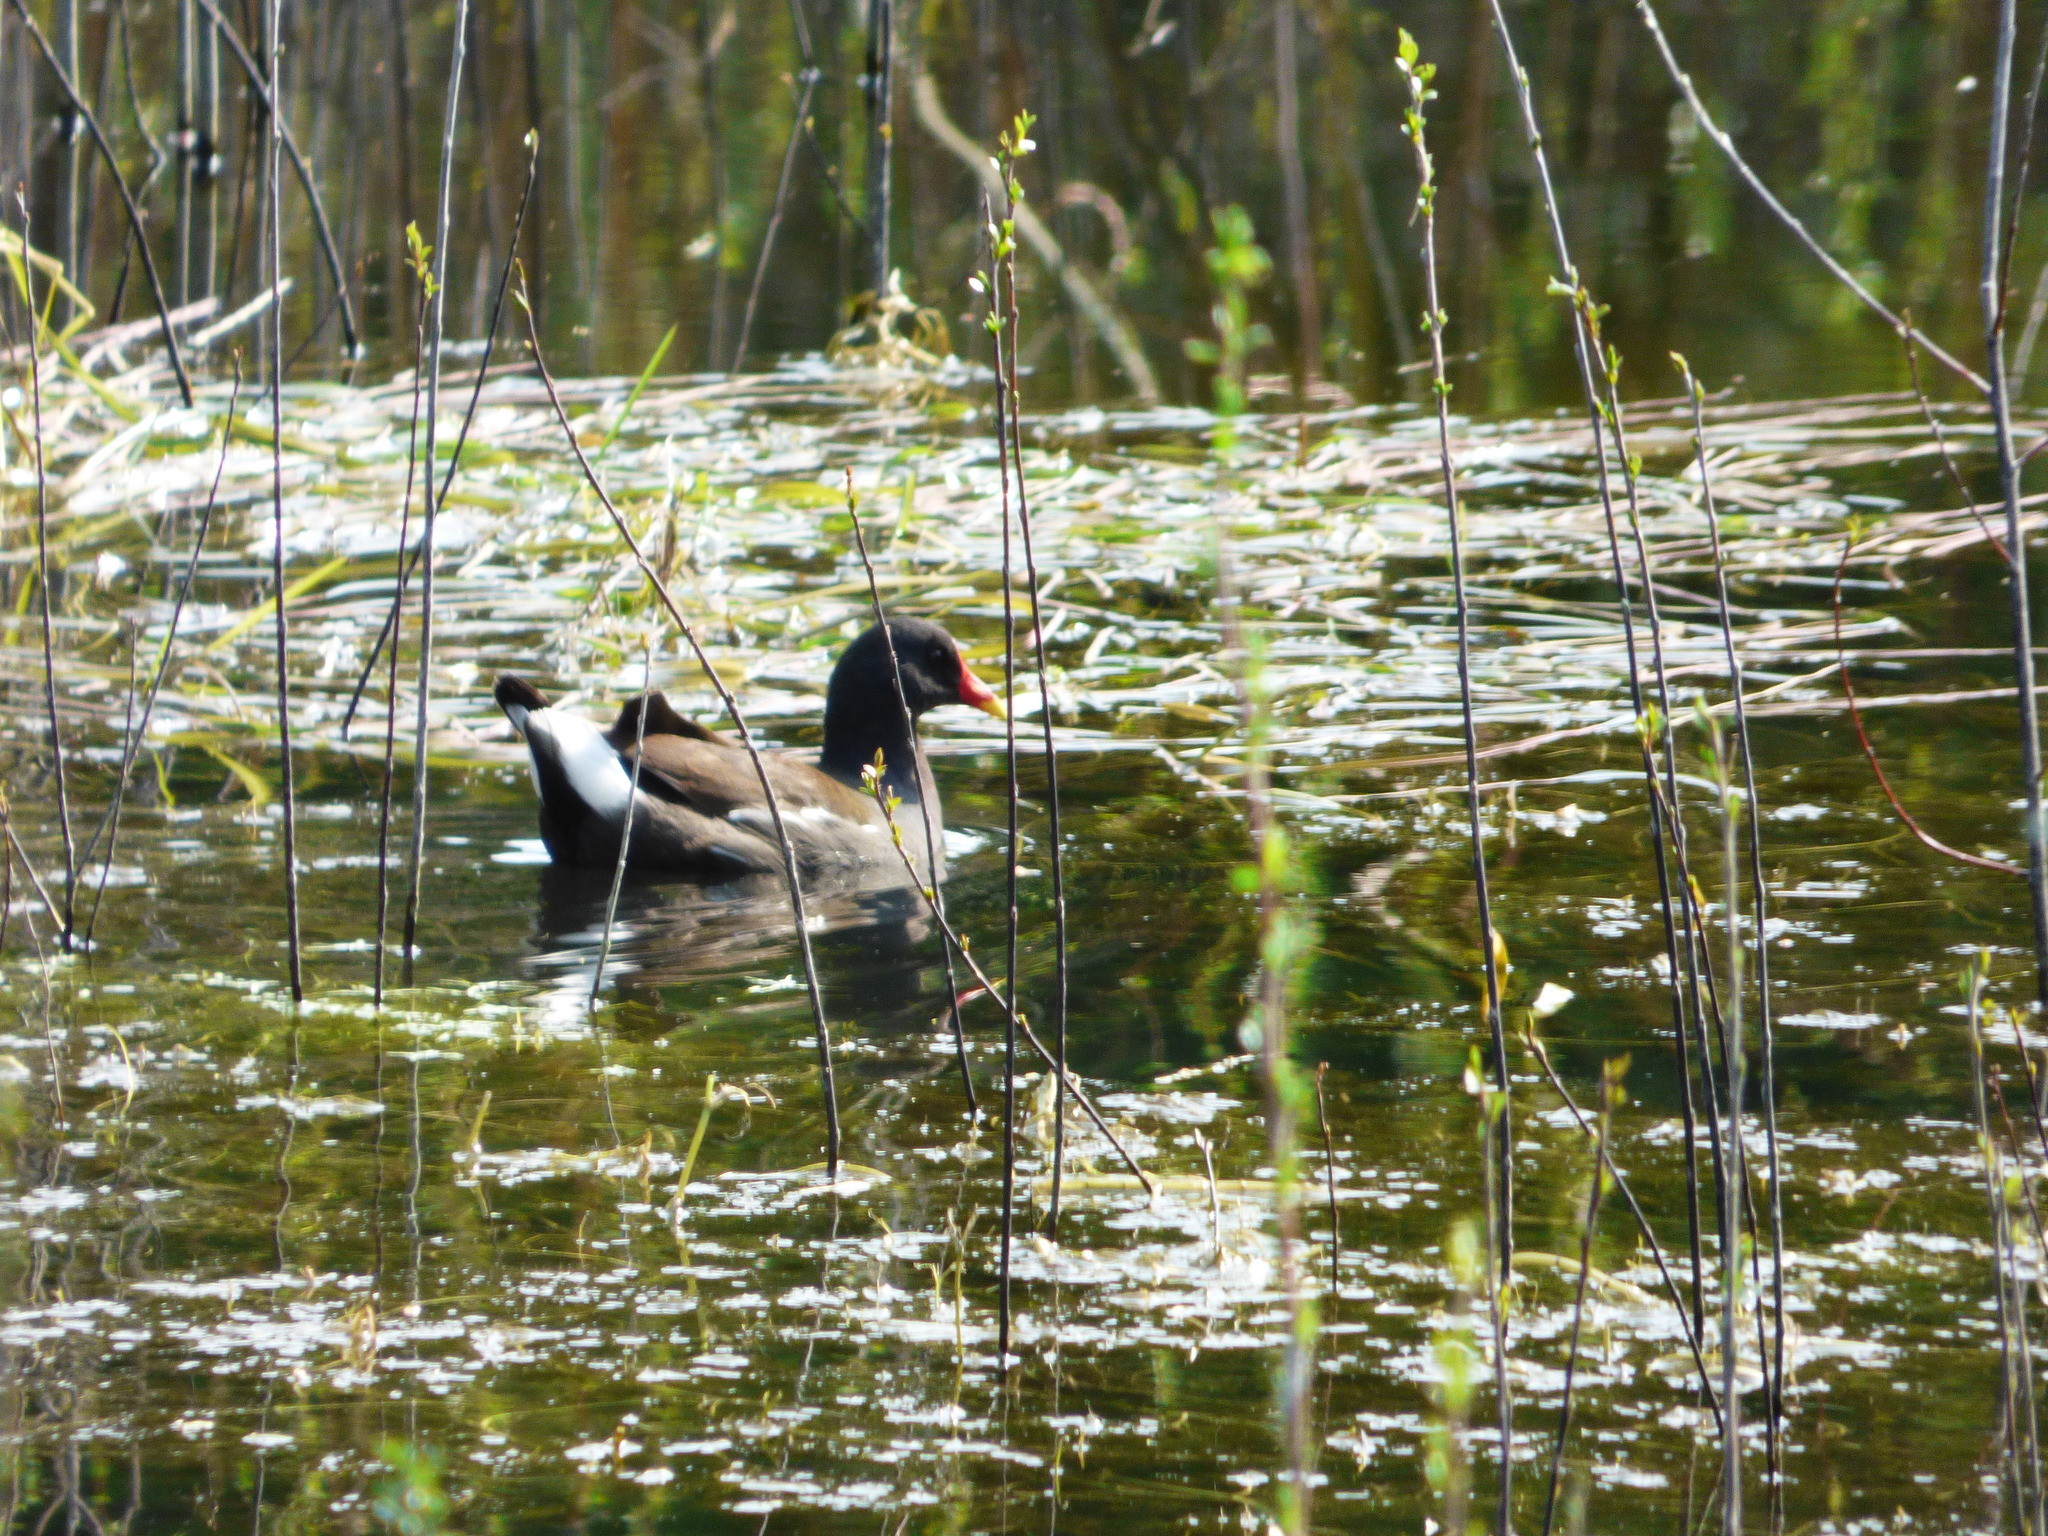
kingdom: Animalia
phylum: Chordata
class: Aves
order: Gruiformes
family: Rallidae
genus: Gallinula
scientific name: Gallinula chloropus
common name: Common moorhen
